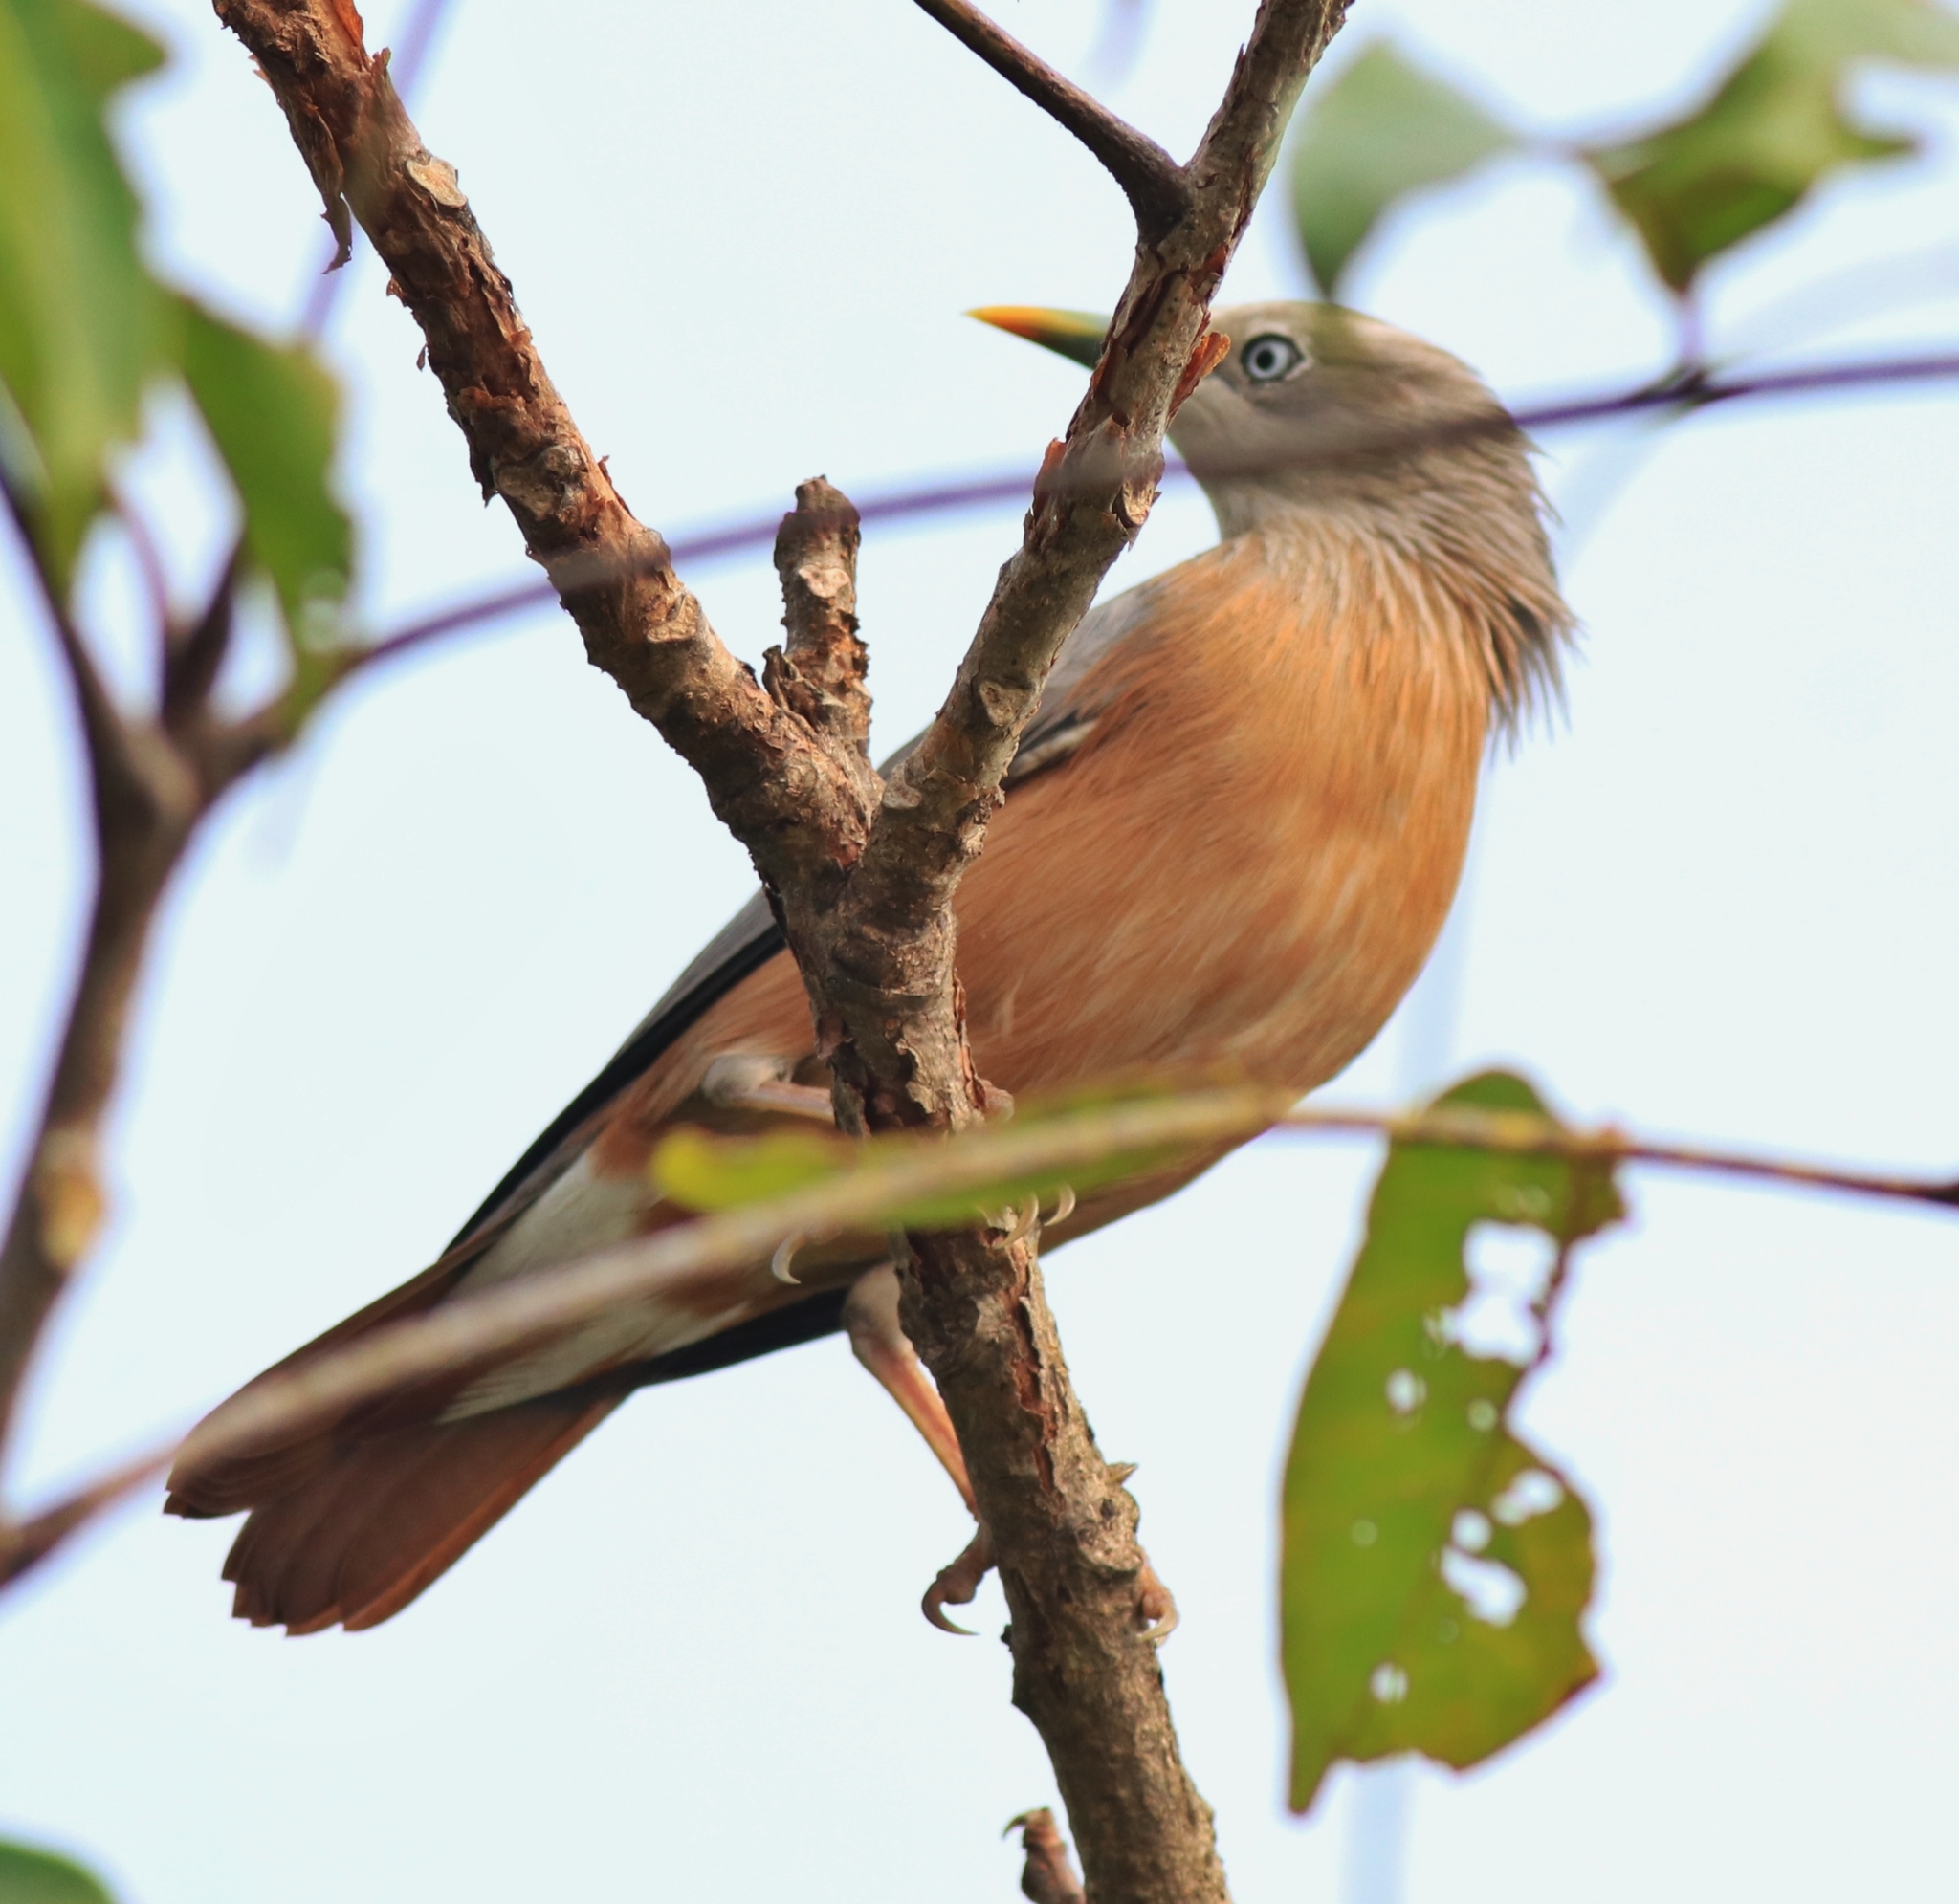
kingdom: Animalia
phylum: Chordata
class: Aves
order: Passeriformes
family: Sturnidae
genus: Sturnia
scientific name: Sturnia malabarica
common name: Chestnut-tailed starling
